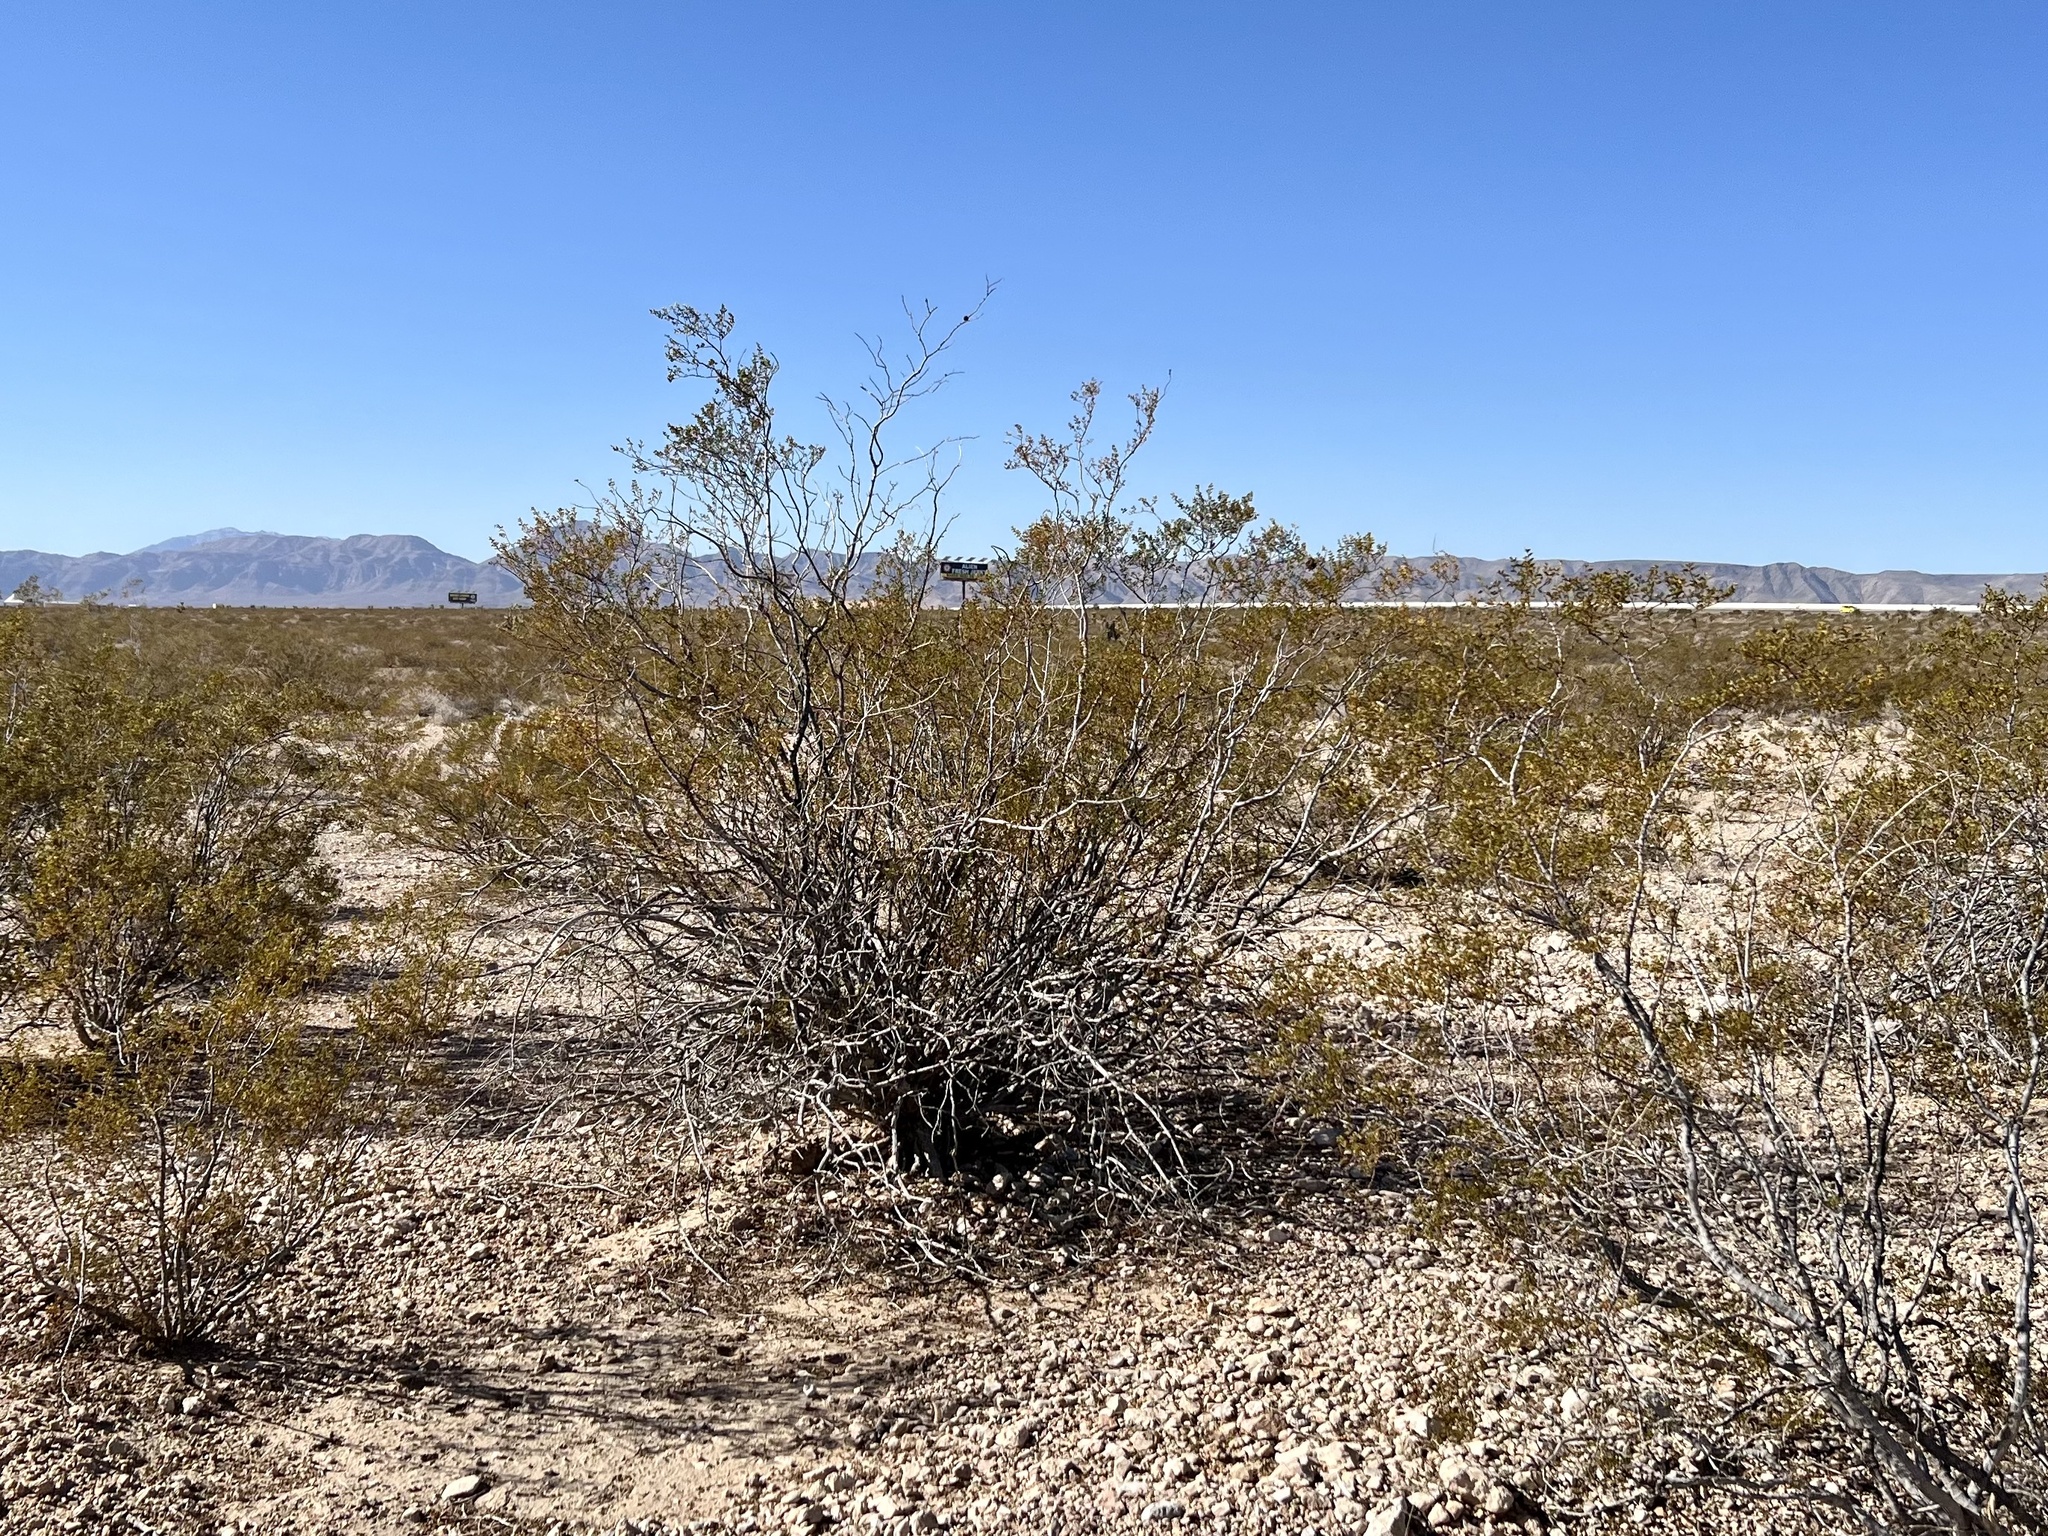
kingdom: Plantae
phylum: Tracheophyta
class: Magnoliopsida
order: Zygophyllales
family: Zygophyllaceae
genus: Larrea
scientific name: Larrea tridentata
